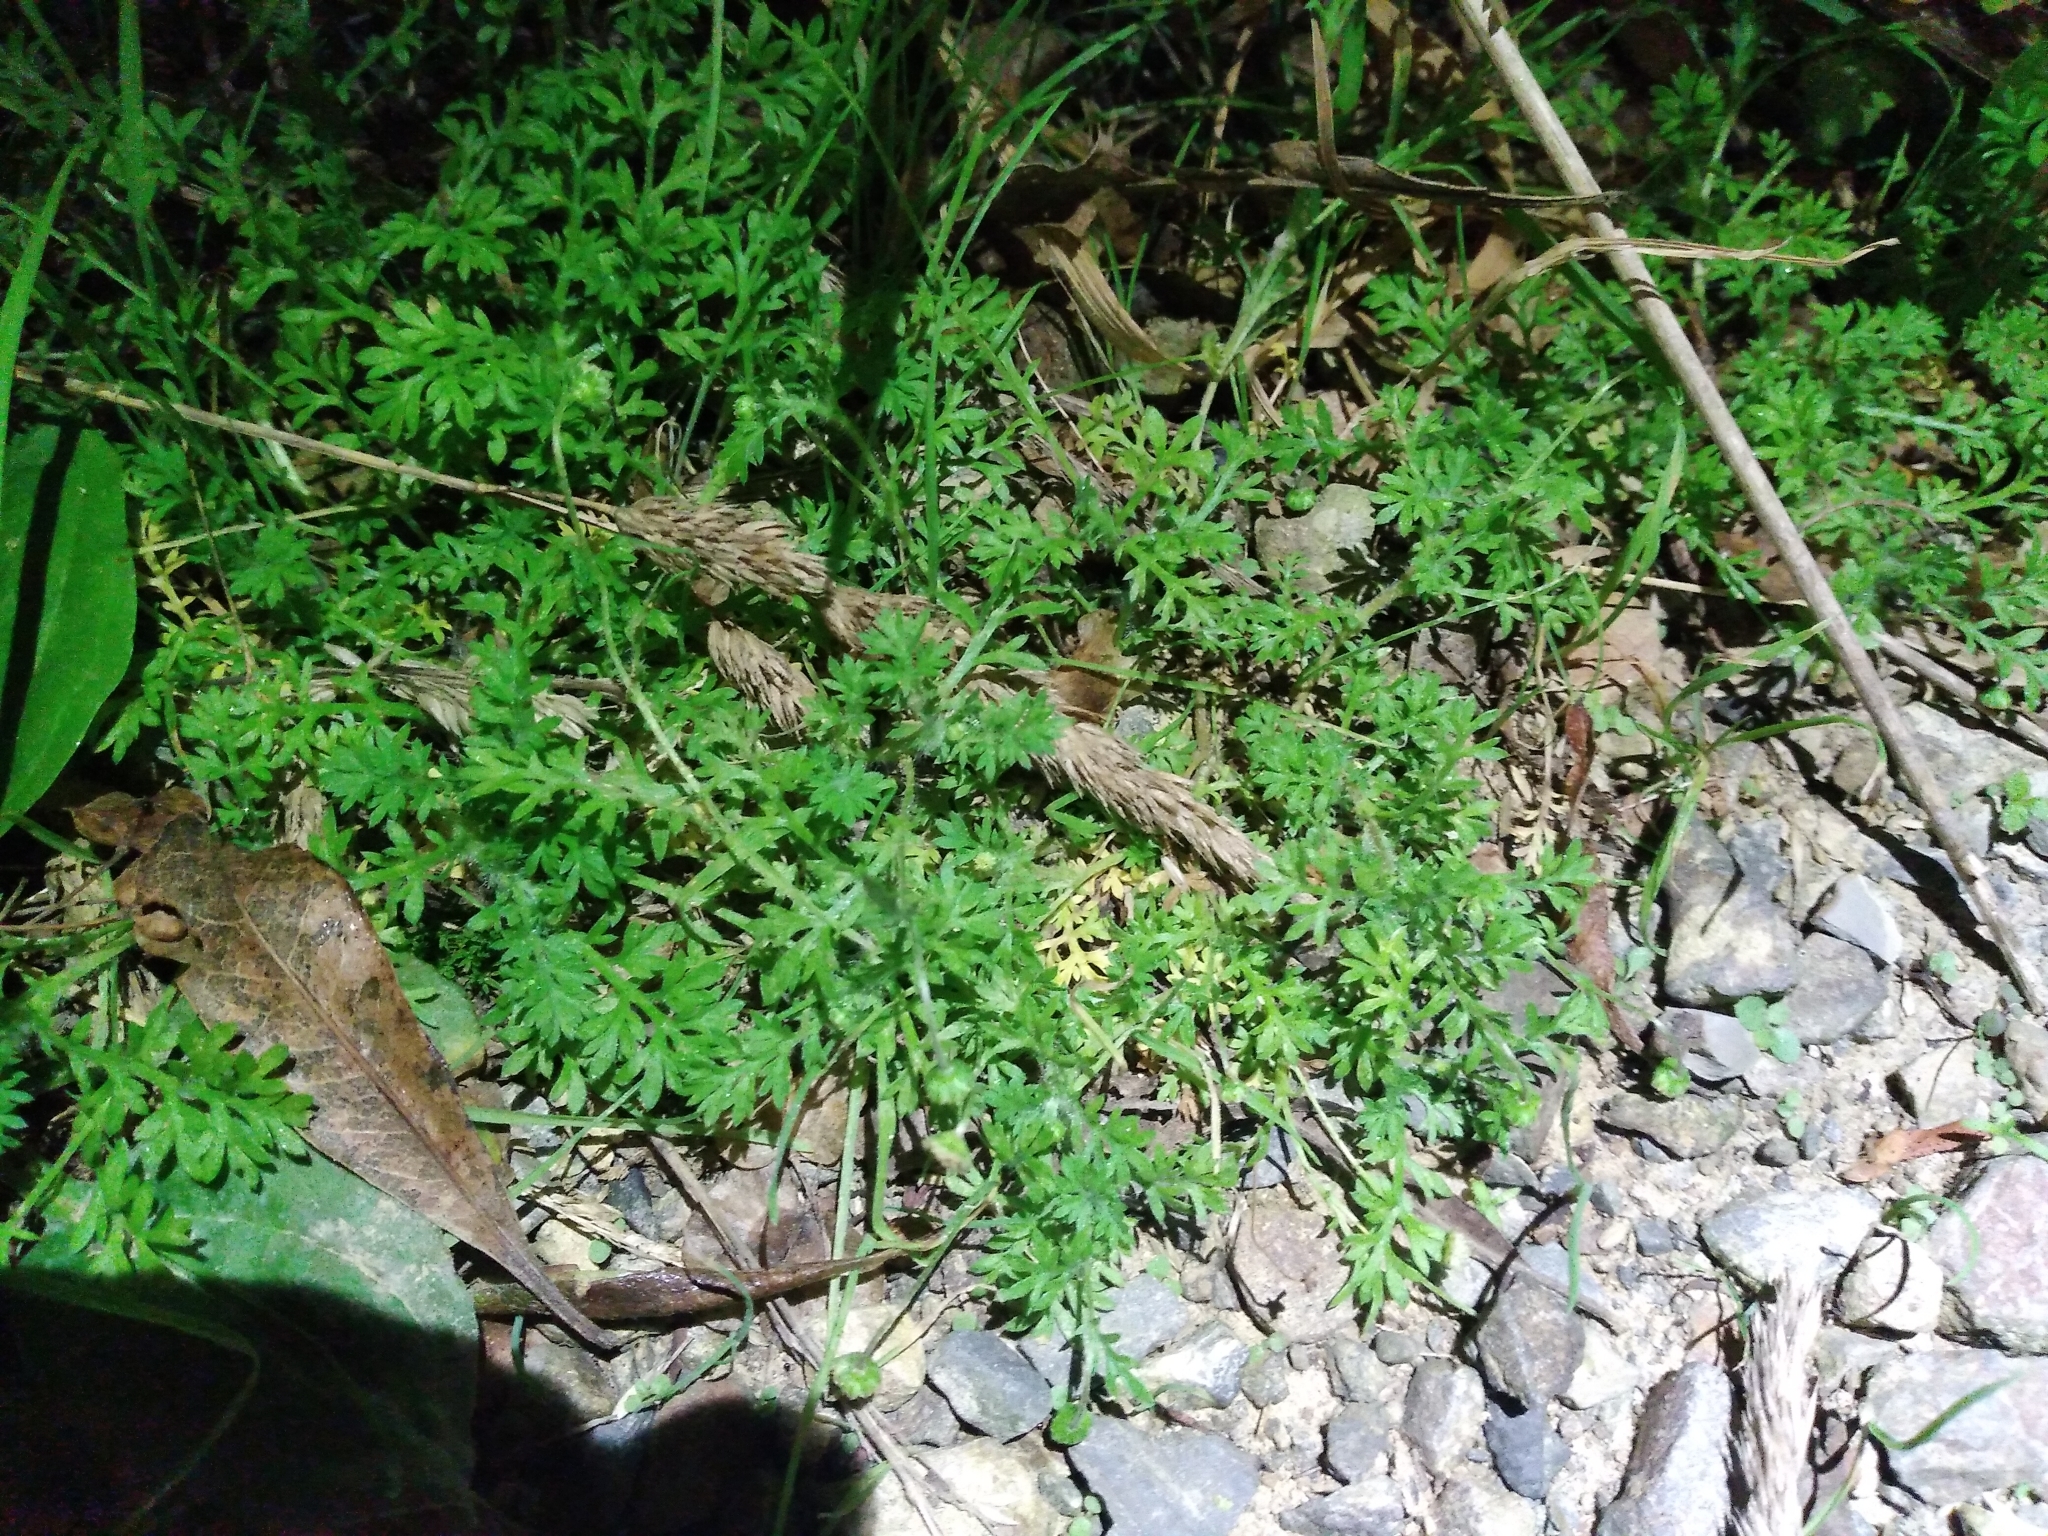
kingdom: Plantae
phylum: Tracheophyta
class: Magnoliopsida
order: Asterales
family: Asteraceae
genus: Cotula
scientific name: Cotula australis
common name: Australian waterbuttons
